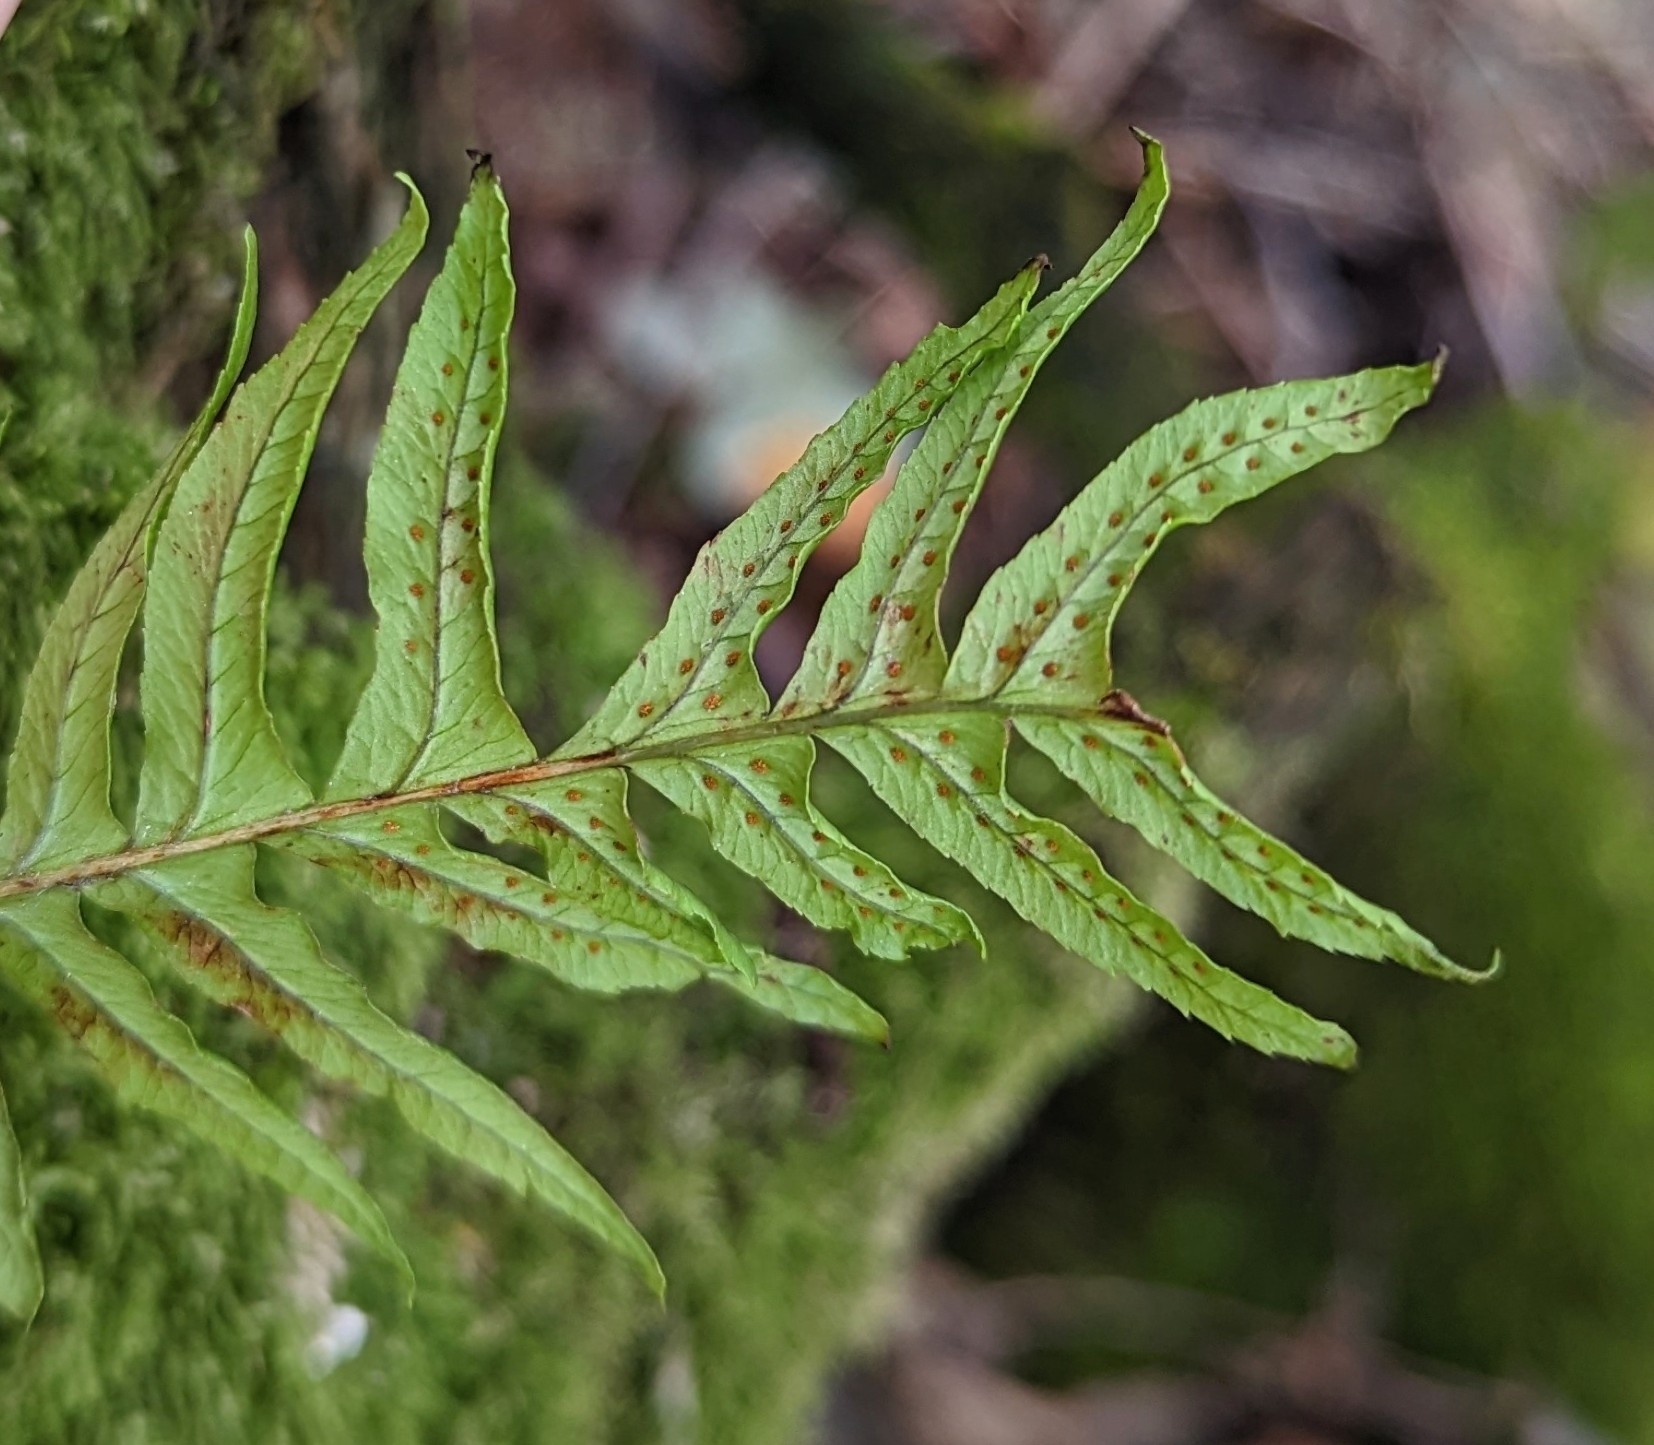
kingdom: Plantae
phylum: Tracheophyta
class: Polypodiopsida
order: Polypodiales
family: Polypodiaceae
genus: Polypodium
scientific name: Polypodium glycyrrhiza
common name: Licorice fern
